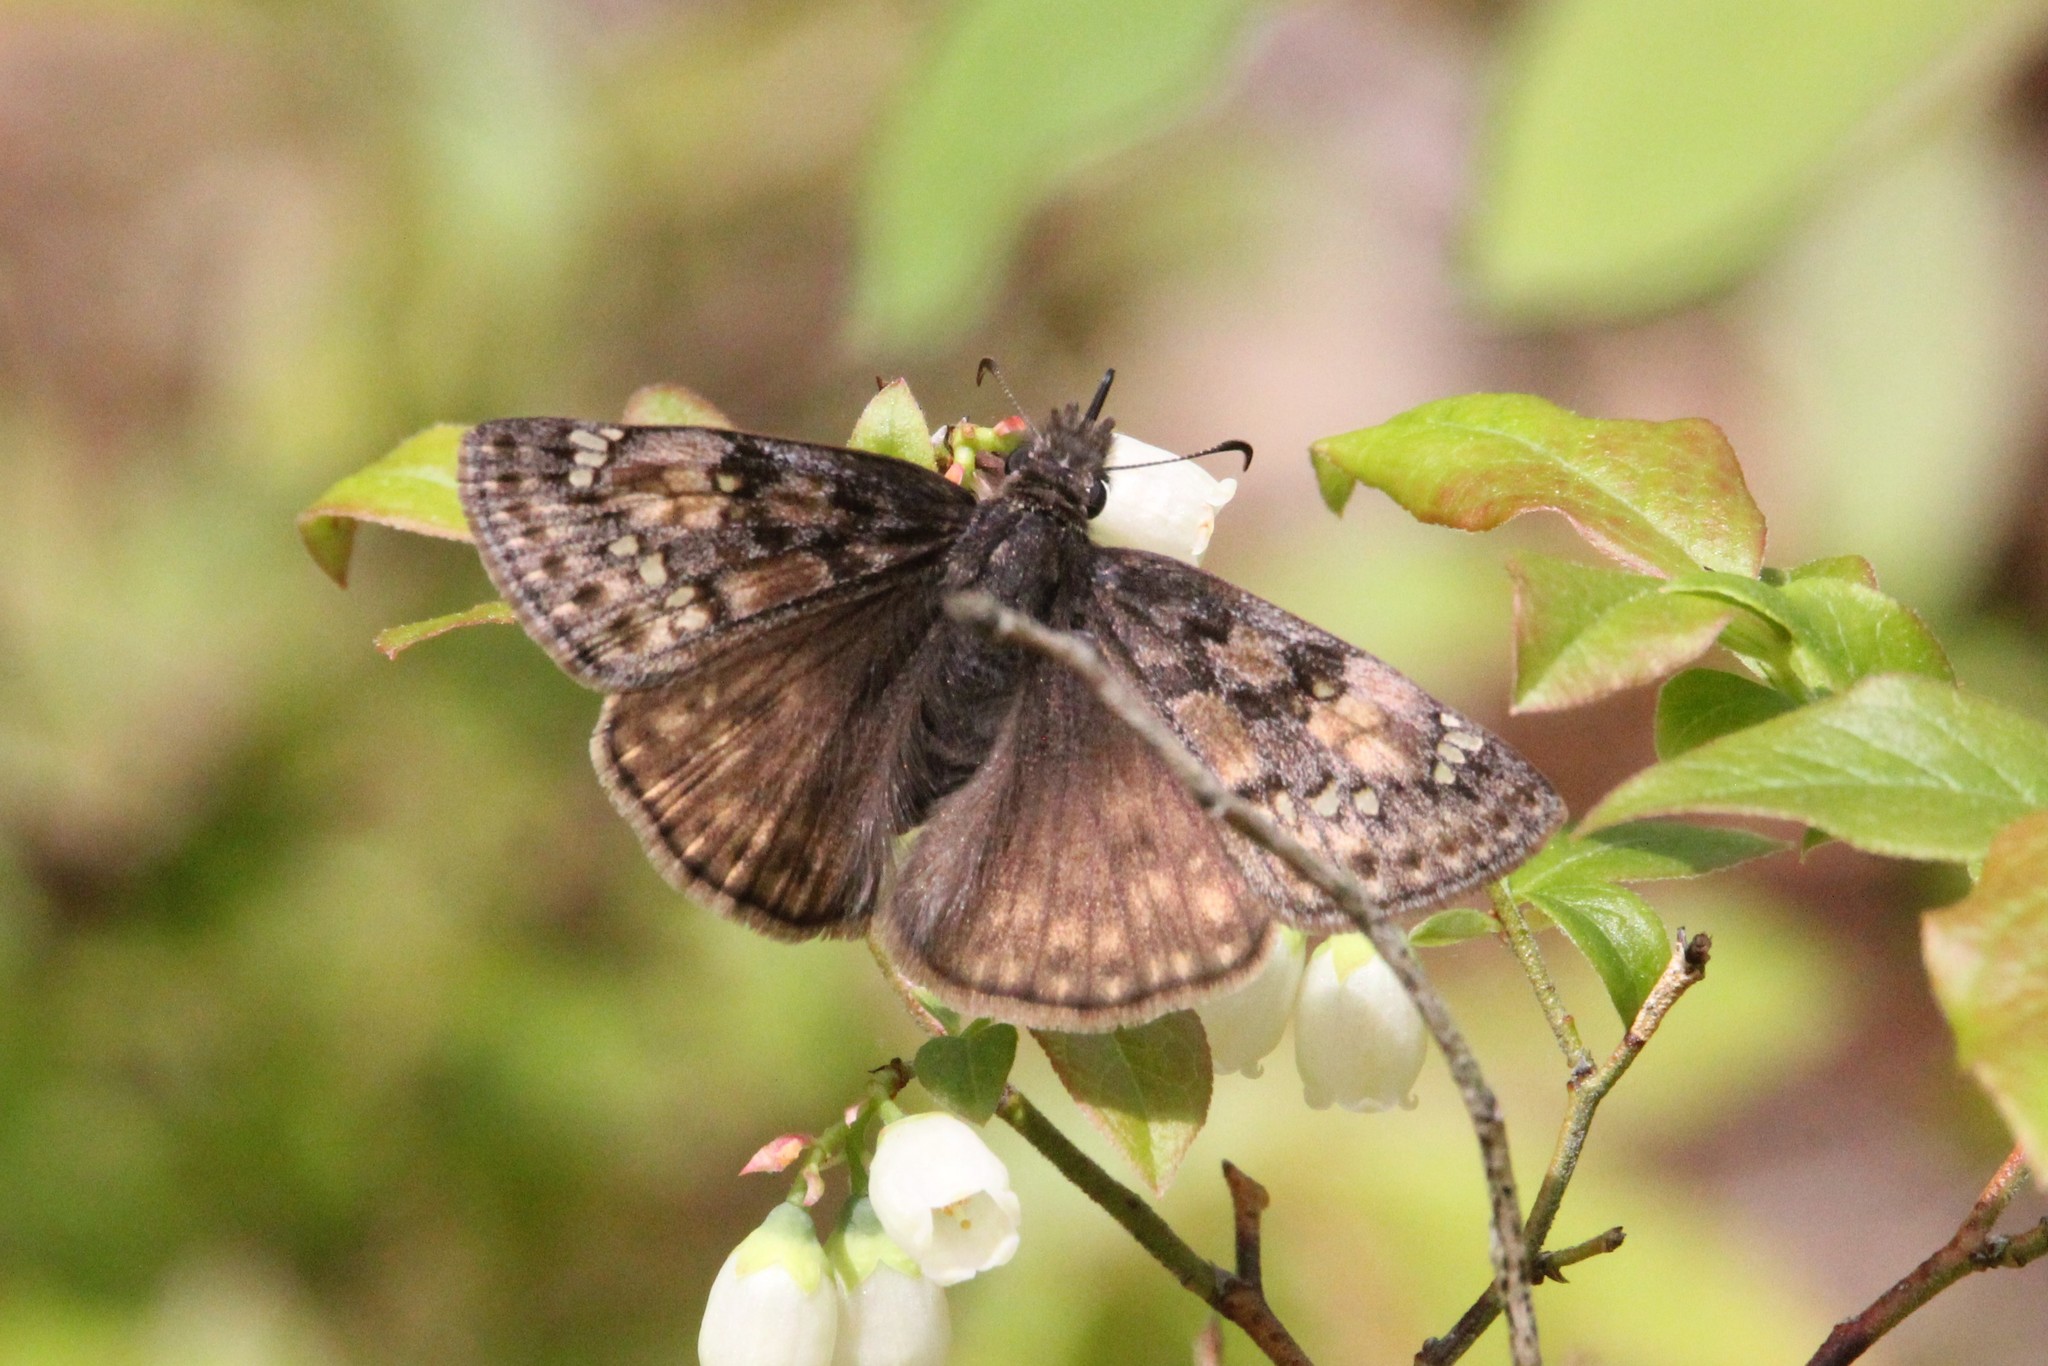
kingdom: Animalia
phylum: Arthropoda
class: Insecta
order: Lepidoptera
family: Hesperiidae
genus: Erynnis
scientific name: Erynnis juvenalis
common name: Juvenal's duskywing
